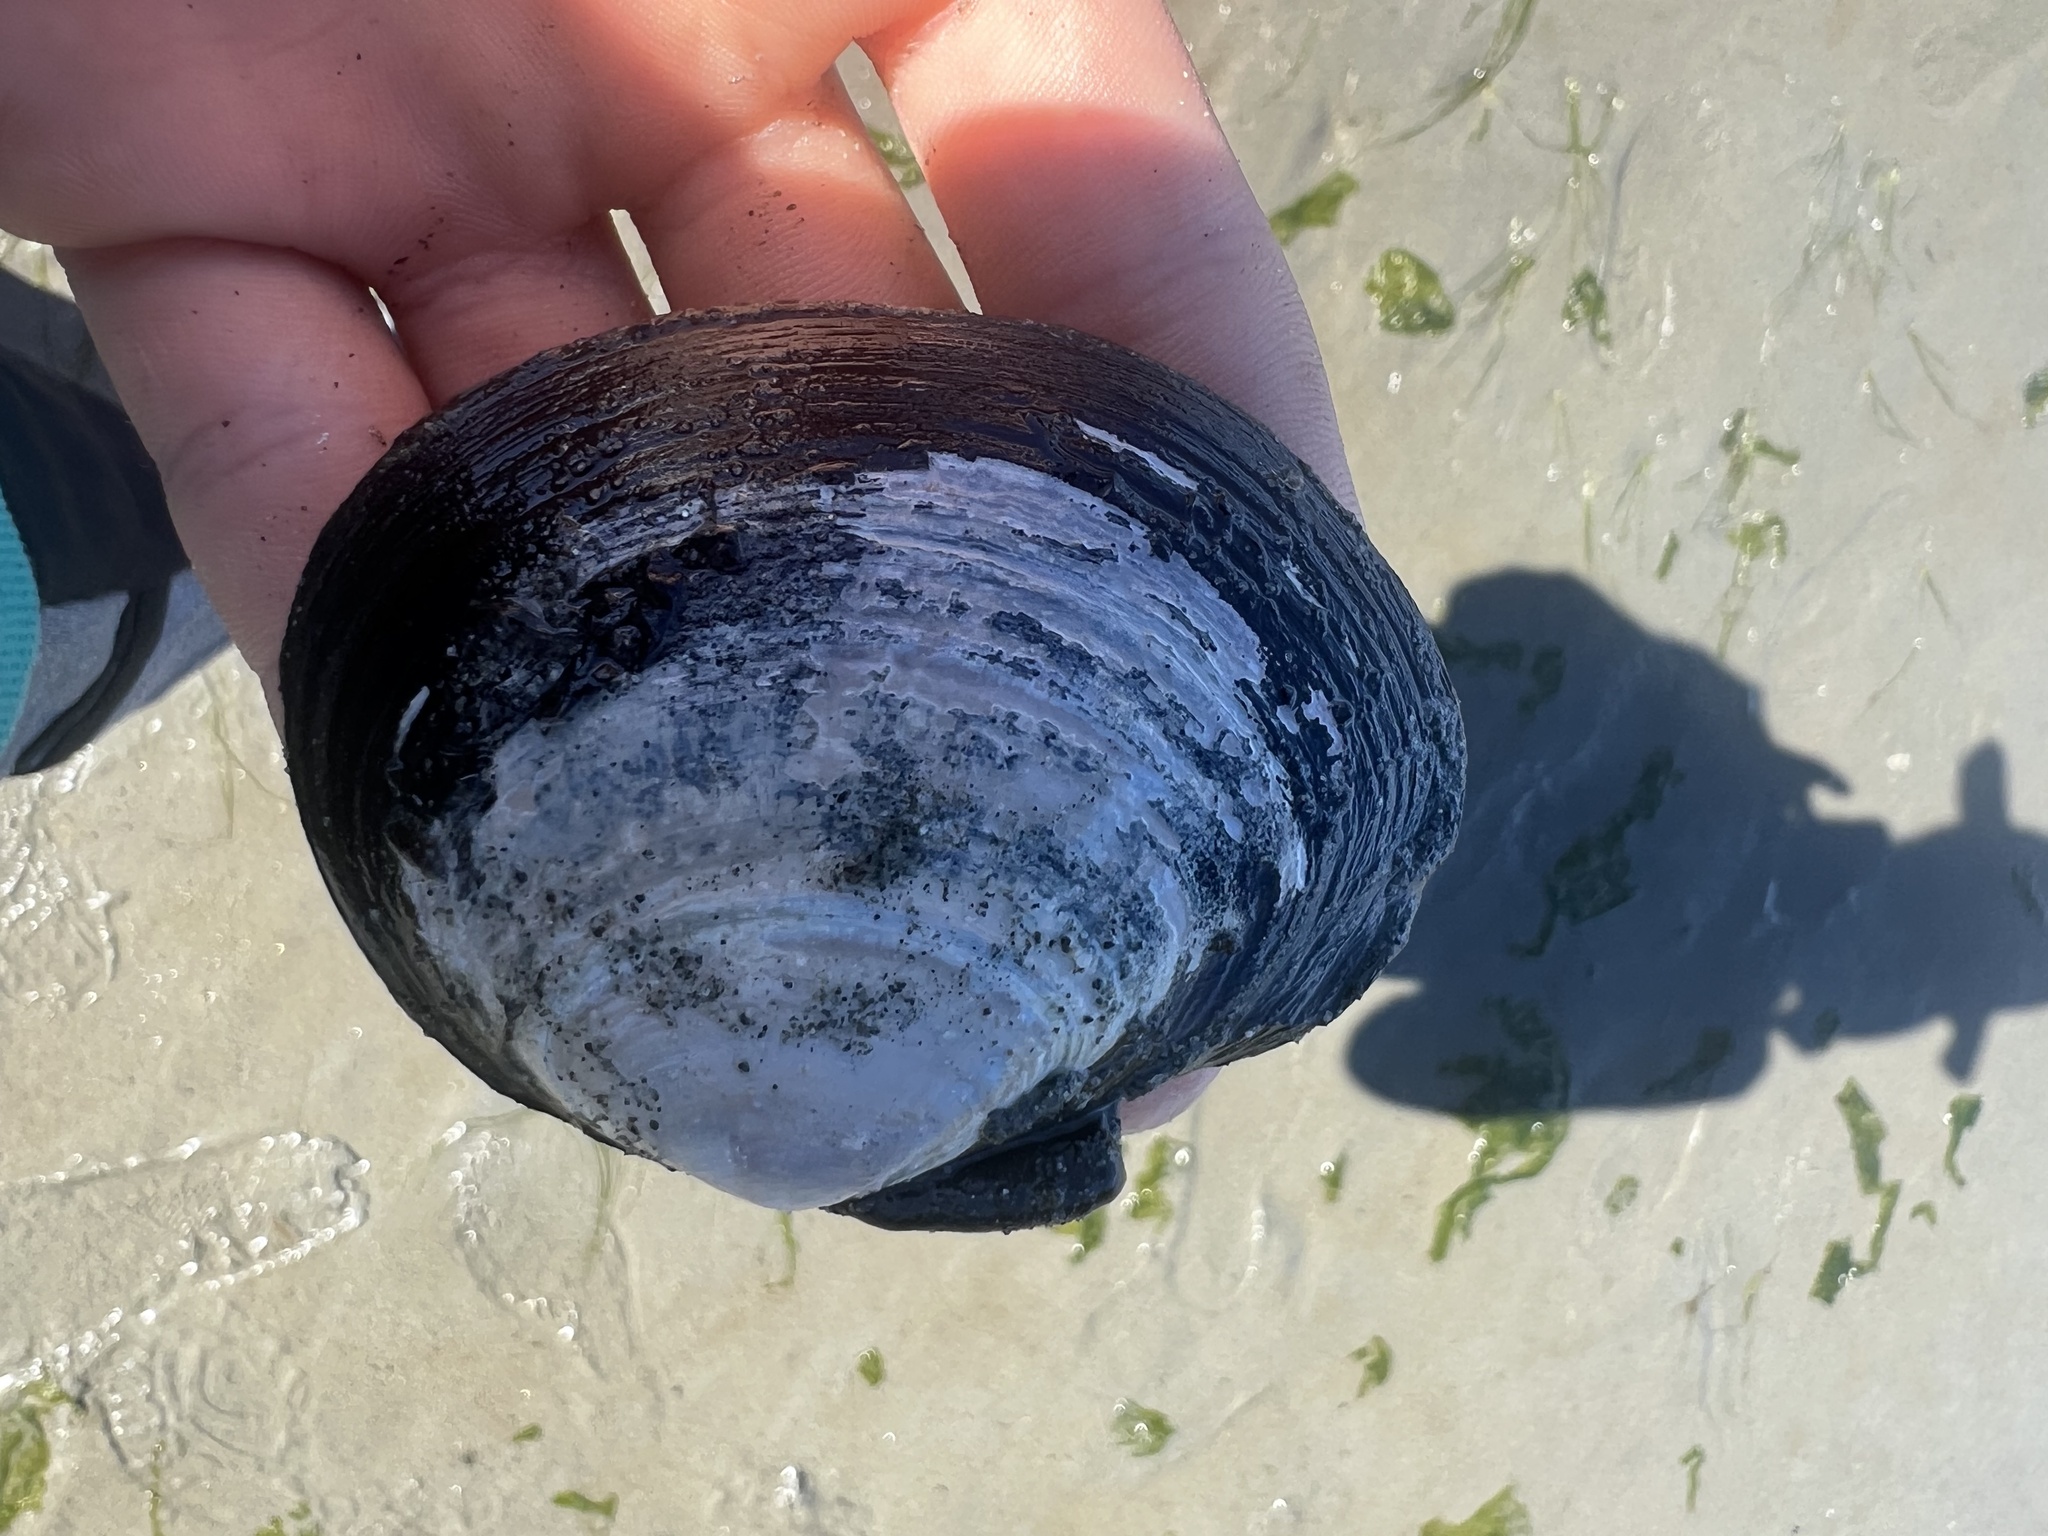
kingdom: Animalia
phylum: Mollusca
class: Bivalvia
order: Cardiida
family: Psammobiidae
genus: Nuttallia
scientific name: Nuttallia obscurata
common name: Purple mahogany-clam
